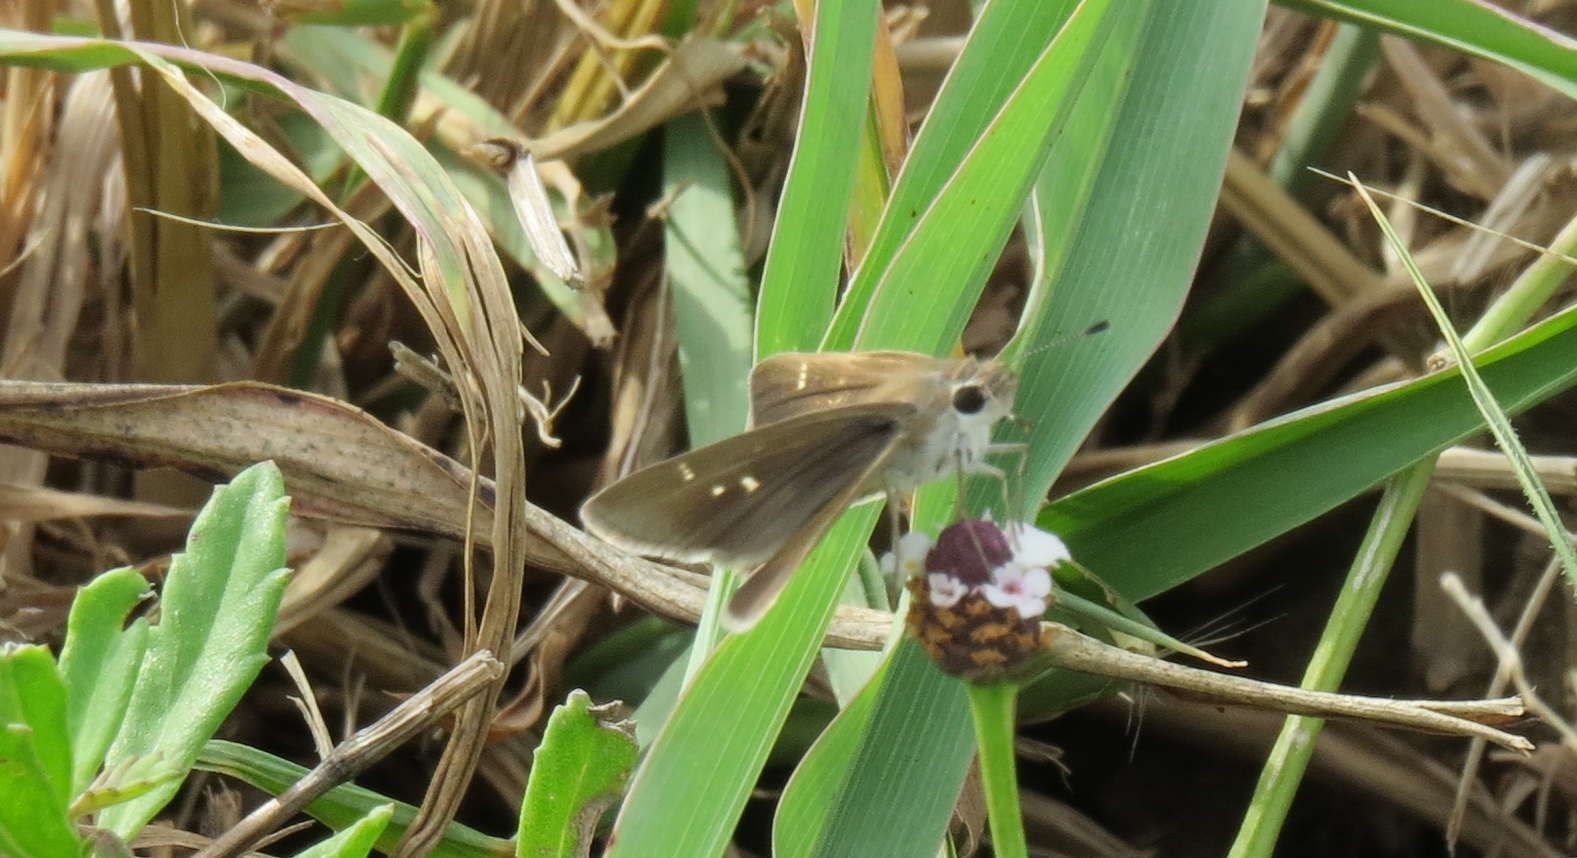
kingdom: Animalia
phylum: Arthropoda
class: Insecta
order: Lepidoptera
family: Hesperiidae
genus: Lerodea
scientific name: Lerodea eufala
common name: Eufala skipper
